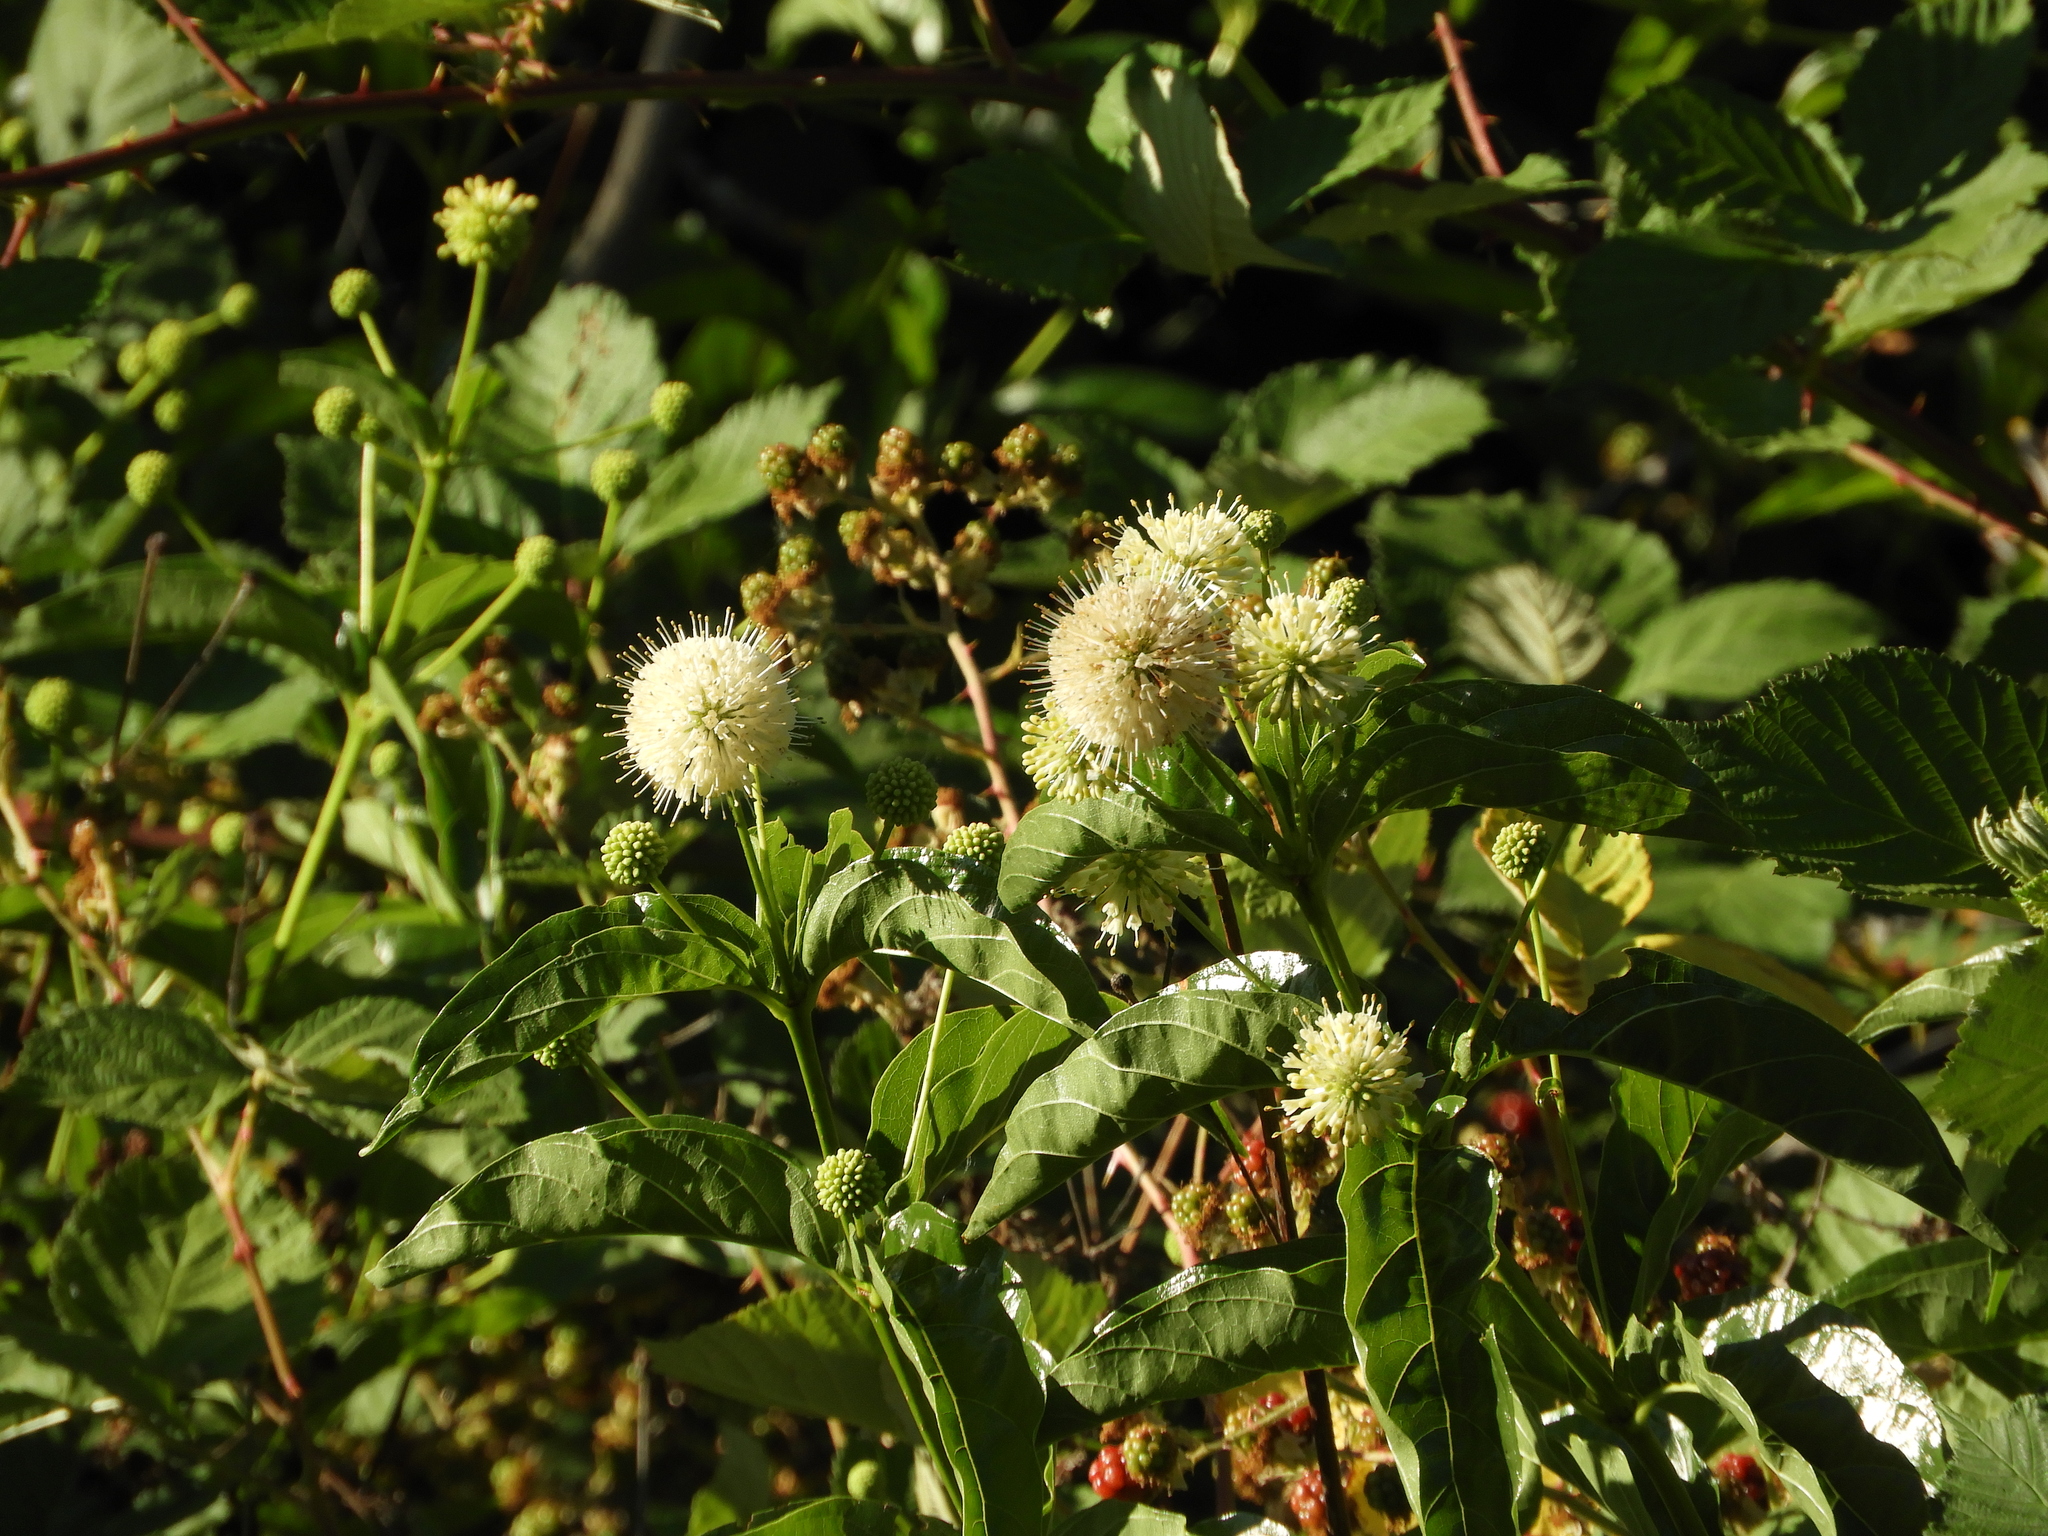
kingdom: Plantae
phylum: Tracheophyta
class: Magnoliopsida
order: Gentianales
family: Rubiaceae
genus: Cephalanthus
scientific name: Cephalanthus occidentalis
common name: Button-willow
